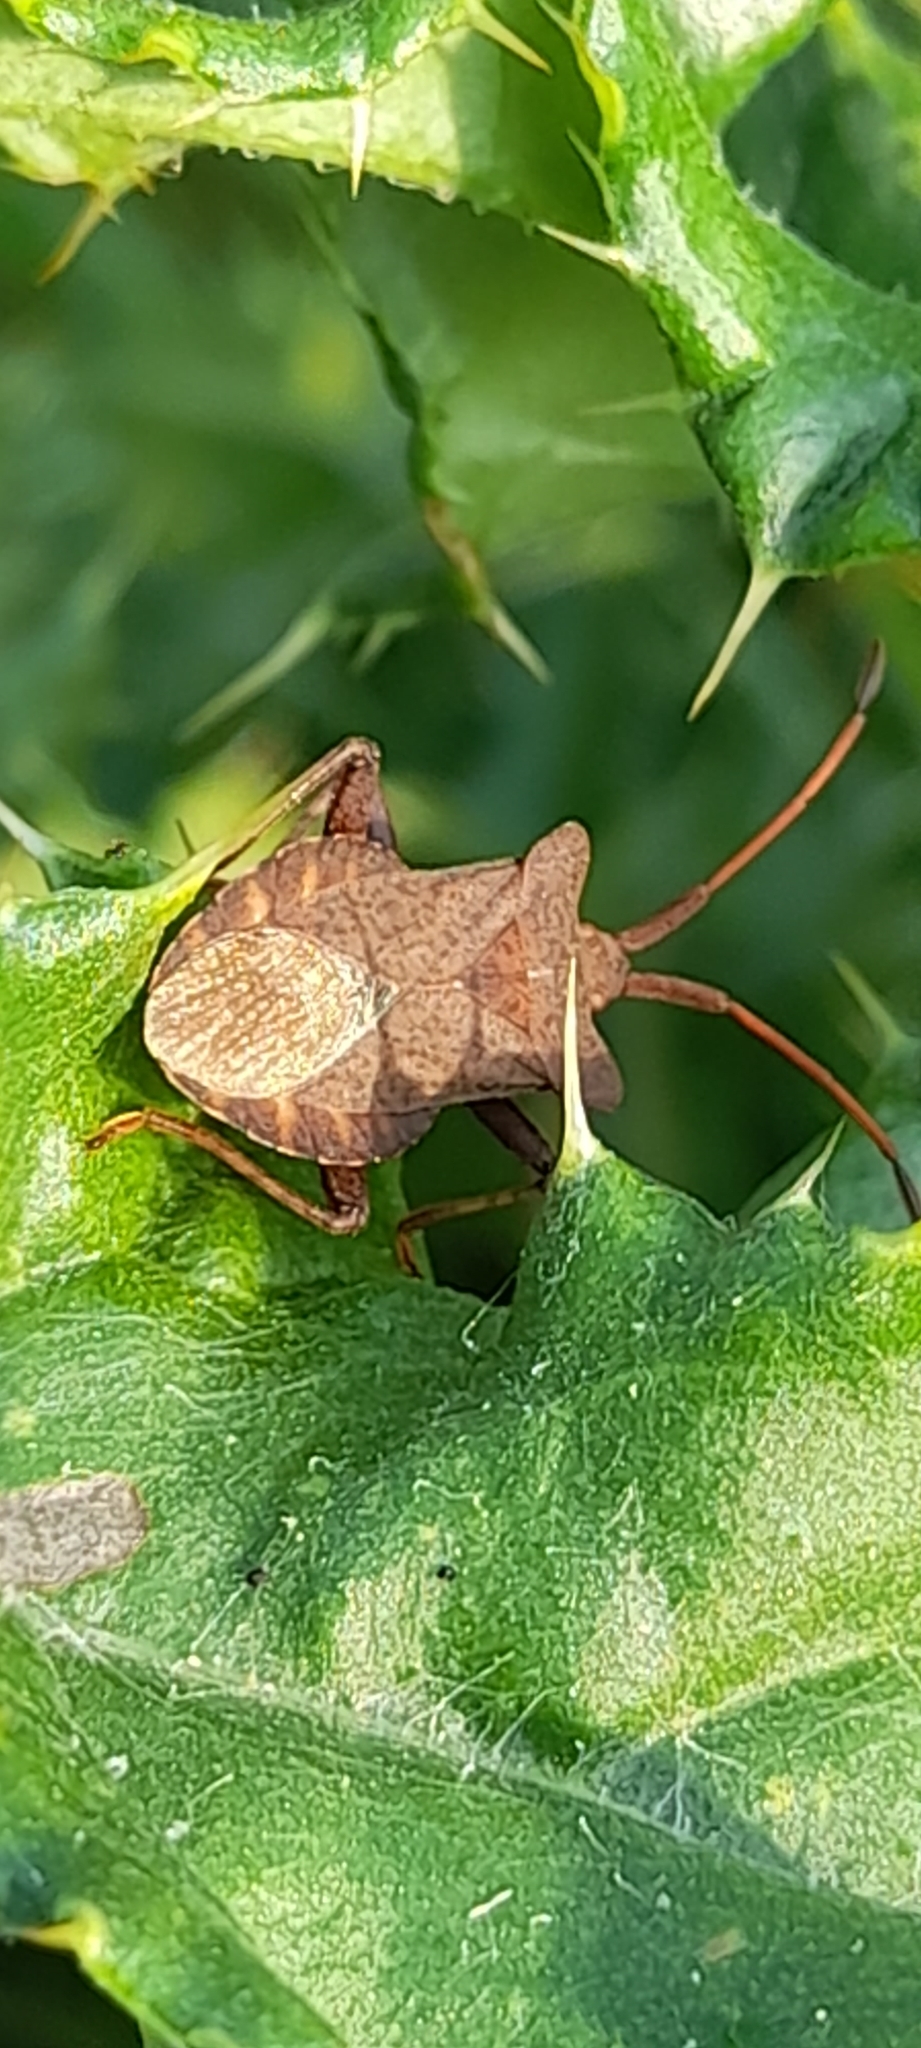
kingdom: Animalia
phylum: Arthropoda
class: Insecta
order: Hemiptera
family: Coreidae
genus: Coreus
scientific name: Coreus marginatus
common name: Dock bug
